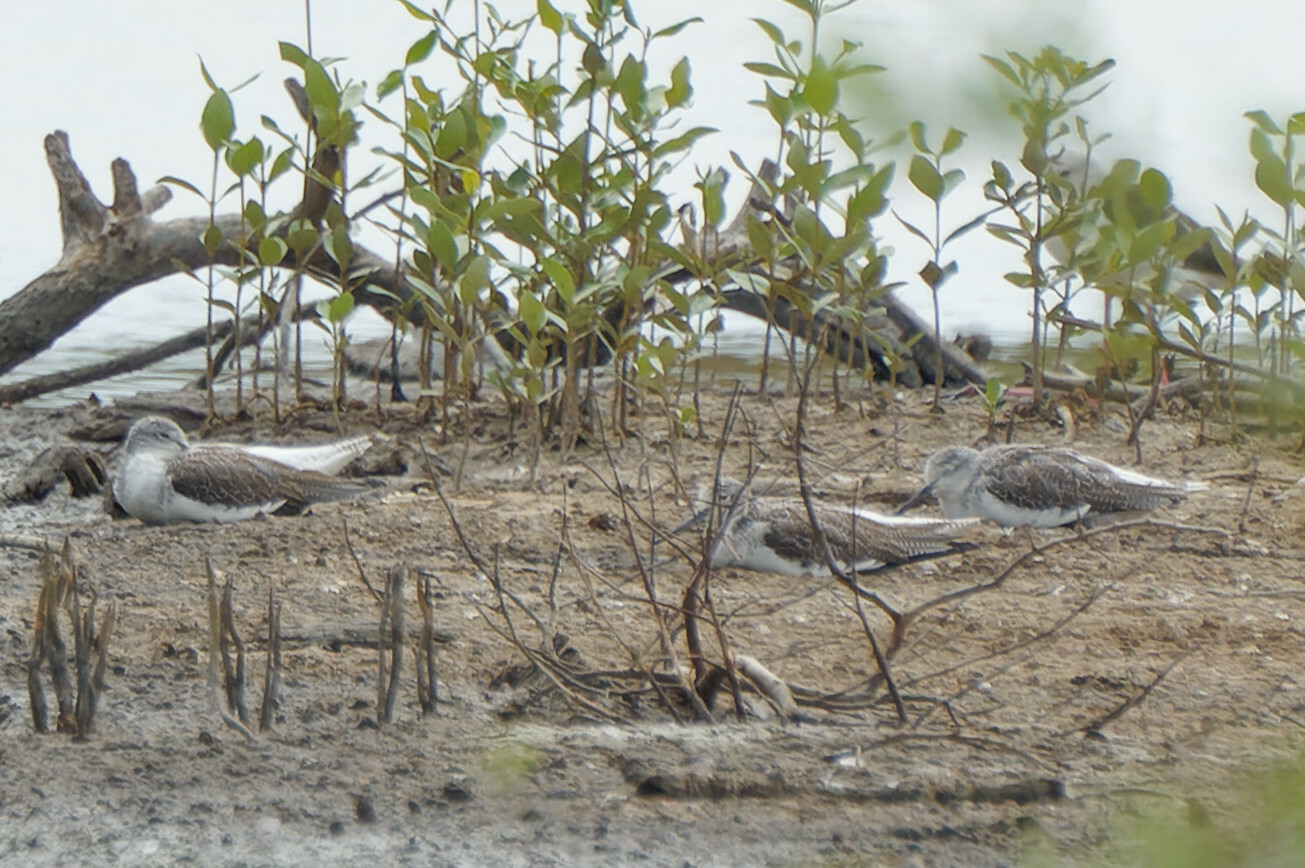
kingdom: Animalia
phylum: Chordata
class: Aves
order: Charadriiformes
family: Scolopacidae
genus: Tringa
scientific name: Tringa nebularia
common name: Common greenshank
